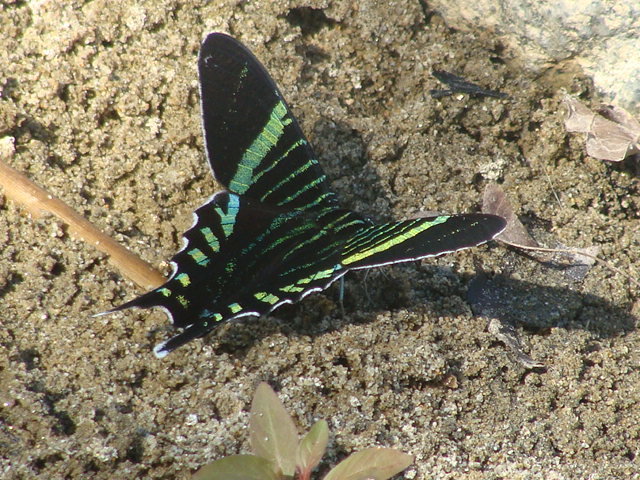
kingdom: Animalia
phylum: Arthropoda
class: Insecta
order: Lepidoptera
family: Uraniidae
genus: Urania
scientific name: Urania fulgens
